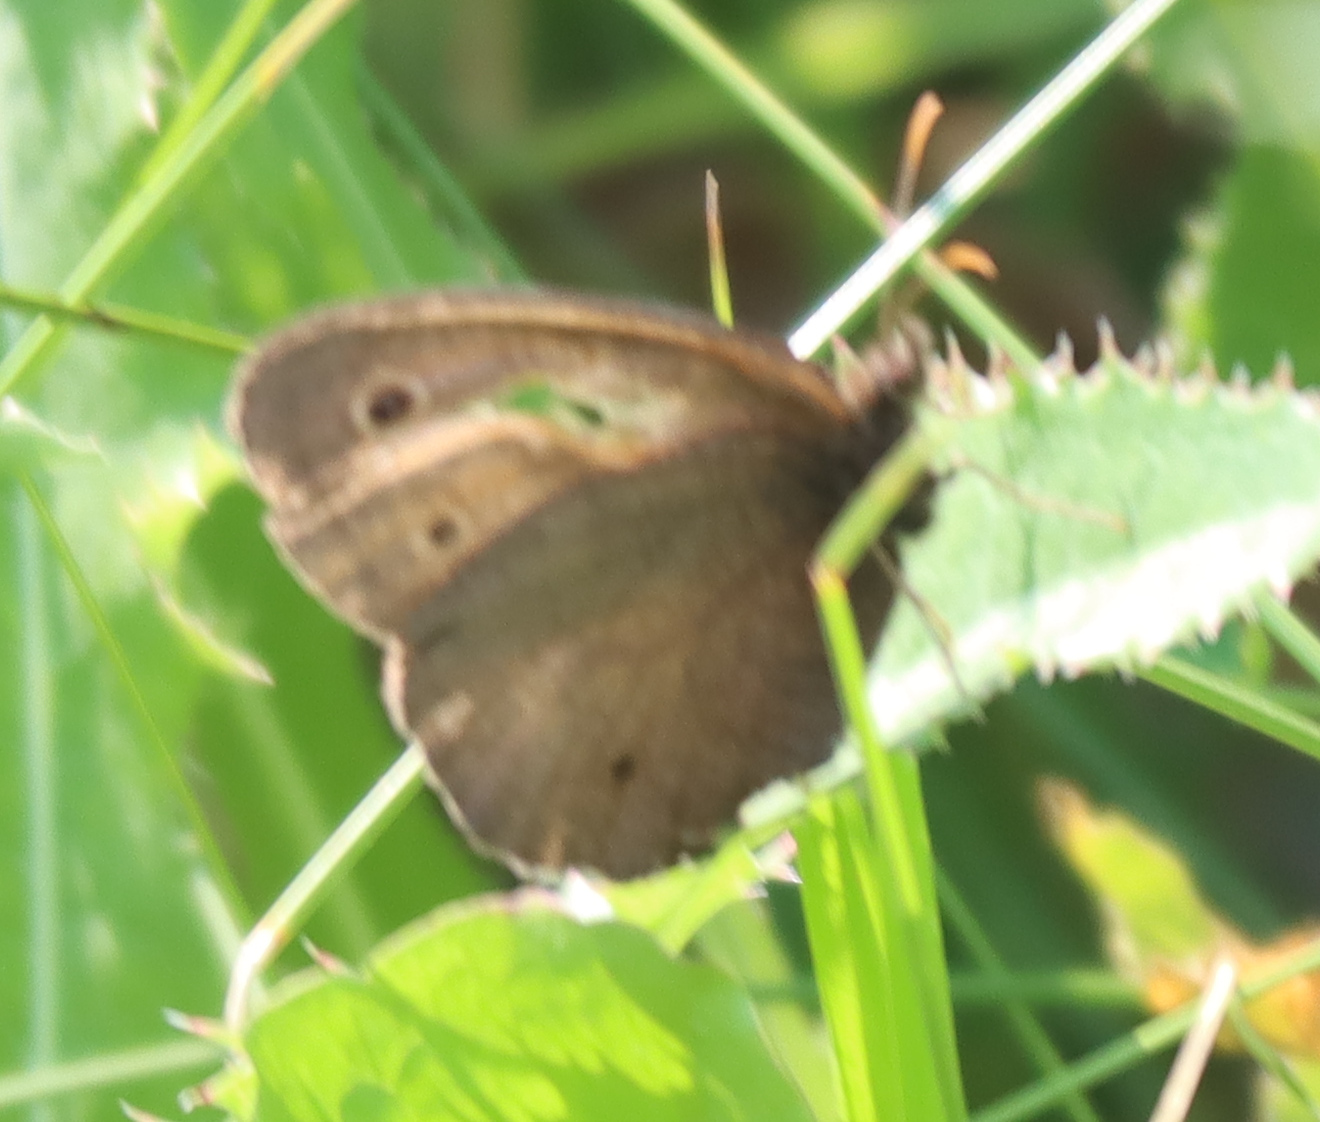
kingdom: Animalia
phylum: Arthropoda
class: Insecta
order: Lepidoptera
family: Nymphalidae
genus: Euptychia
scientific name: Euptychia cymela
